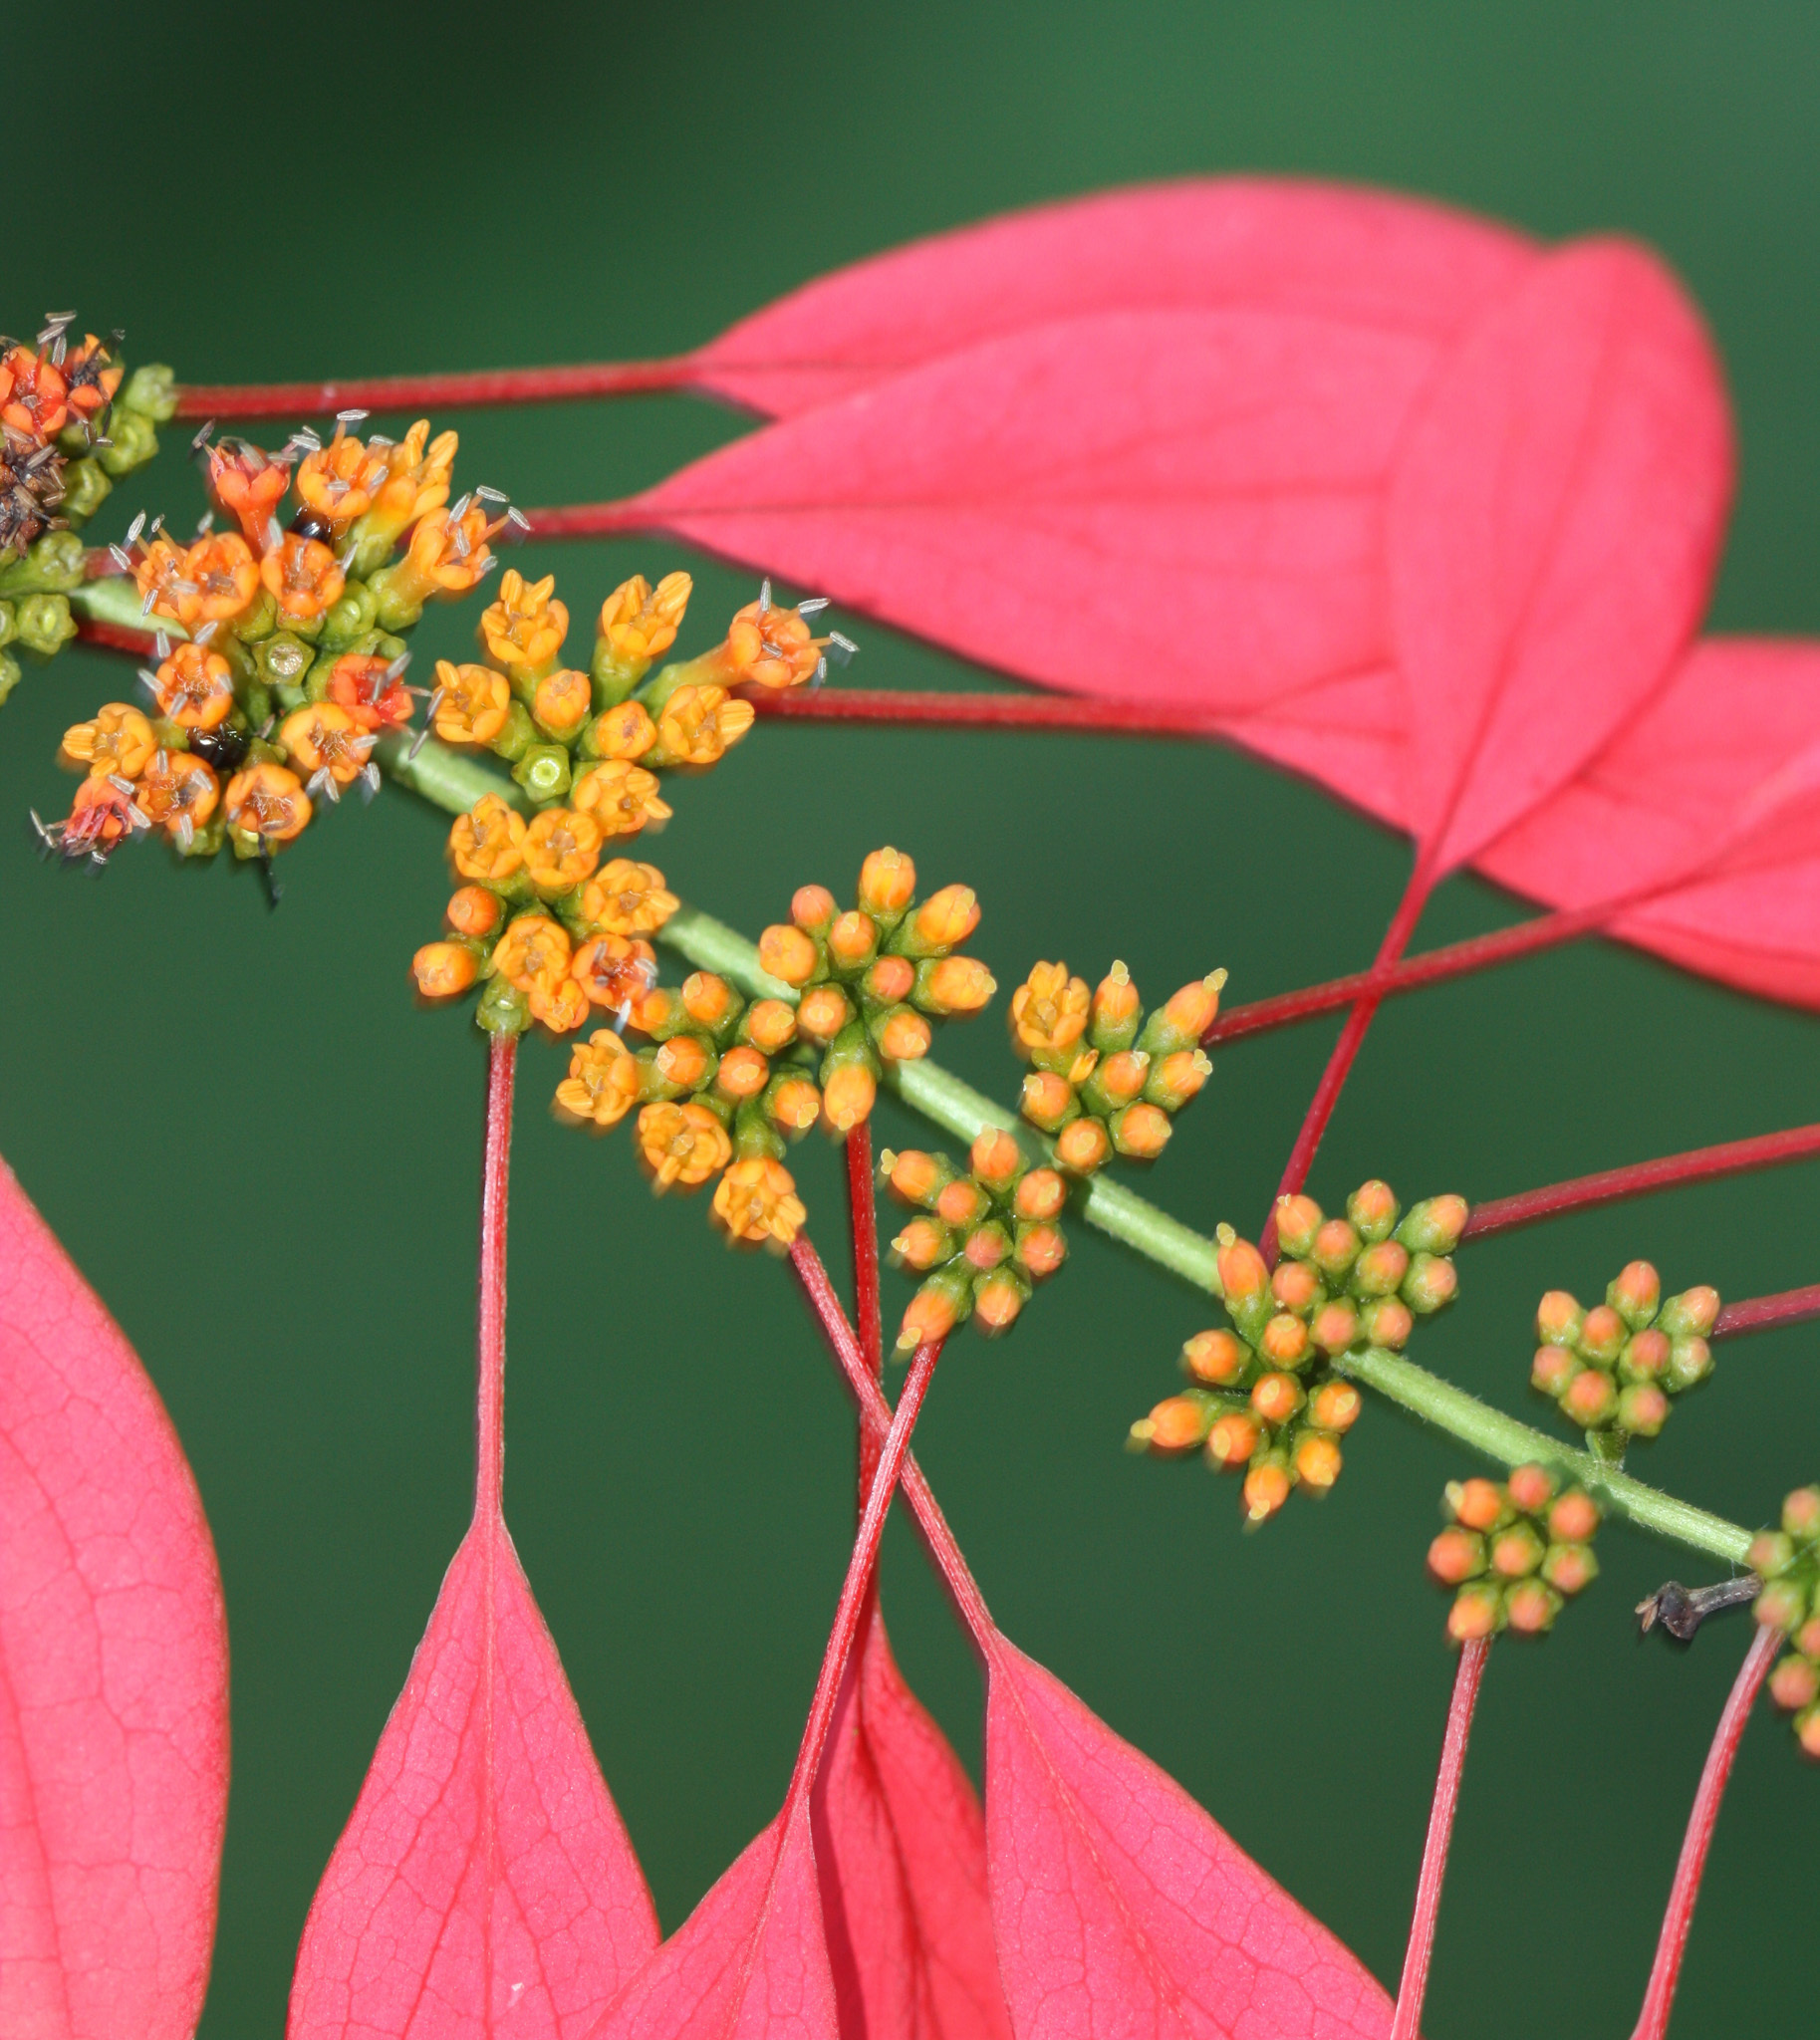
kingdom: Plantae
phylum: Tracheophyta
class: Magnoliopsida
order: Gentianales
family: Rubiaceae
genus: Warszewiczia
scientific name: Warszewiczia coccinea
